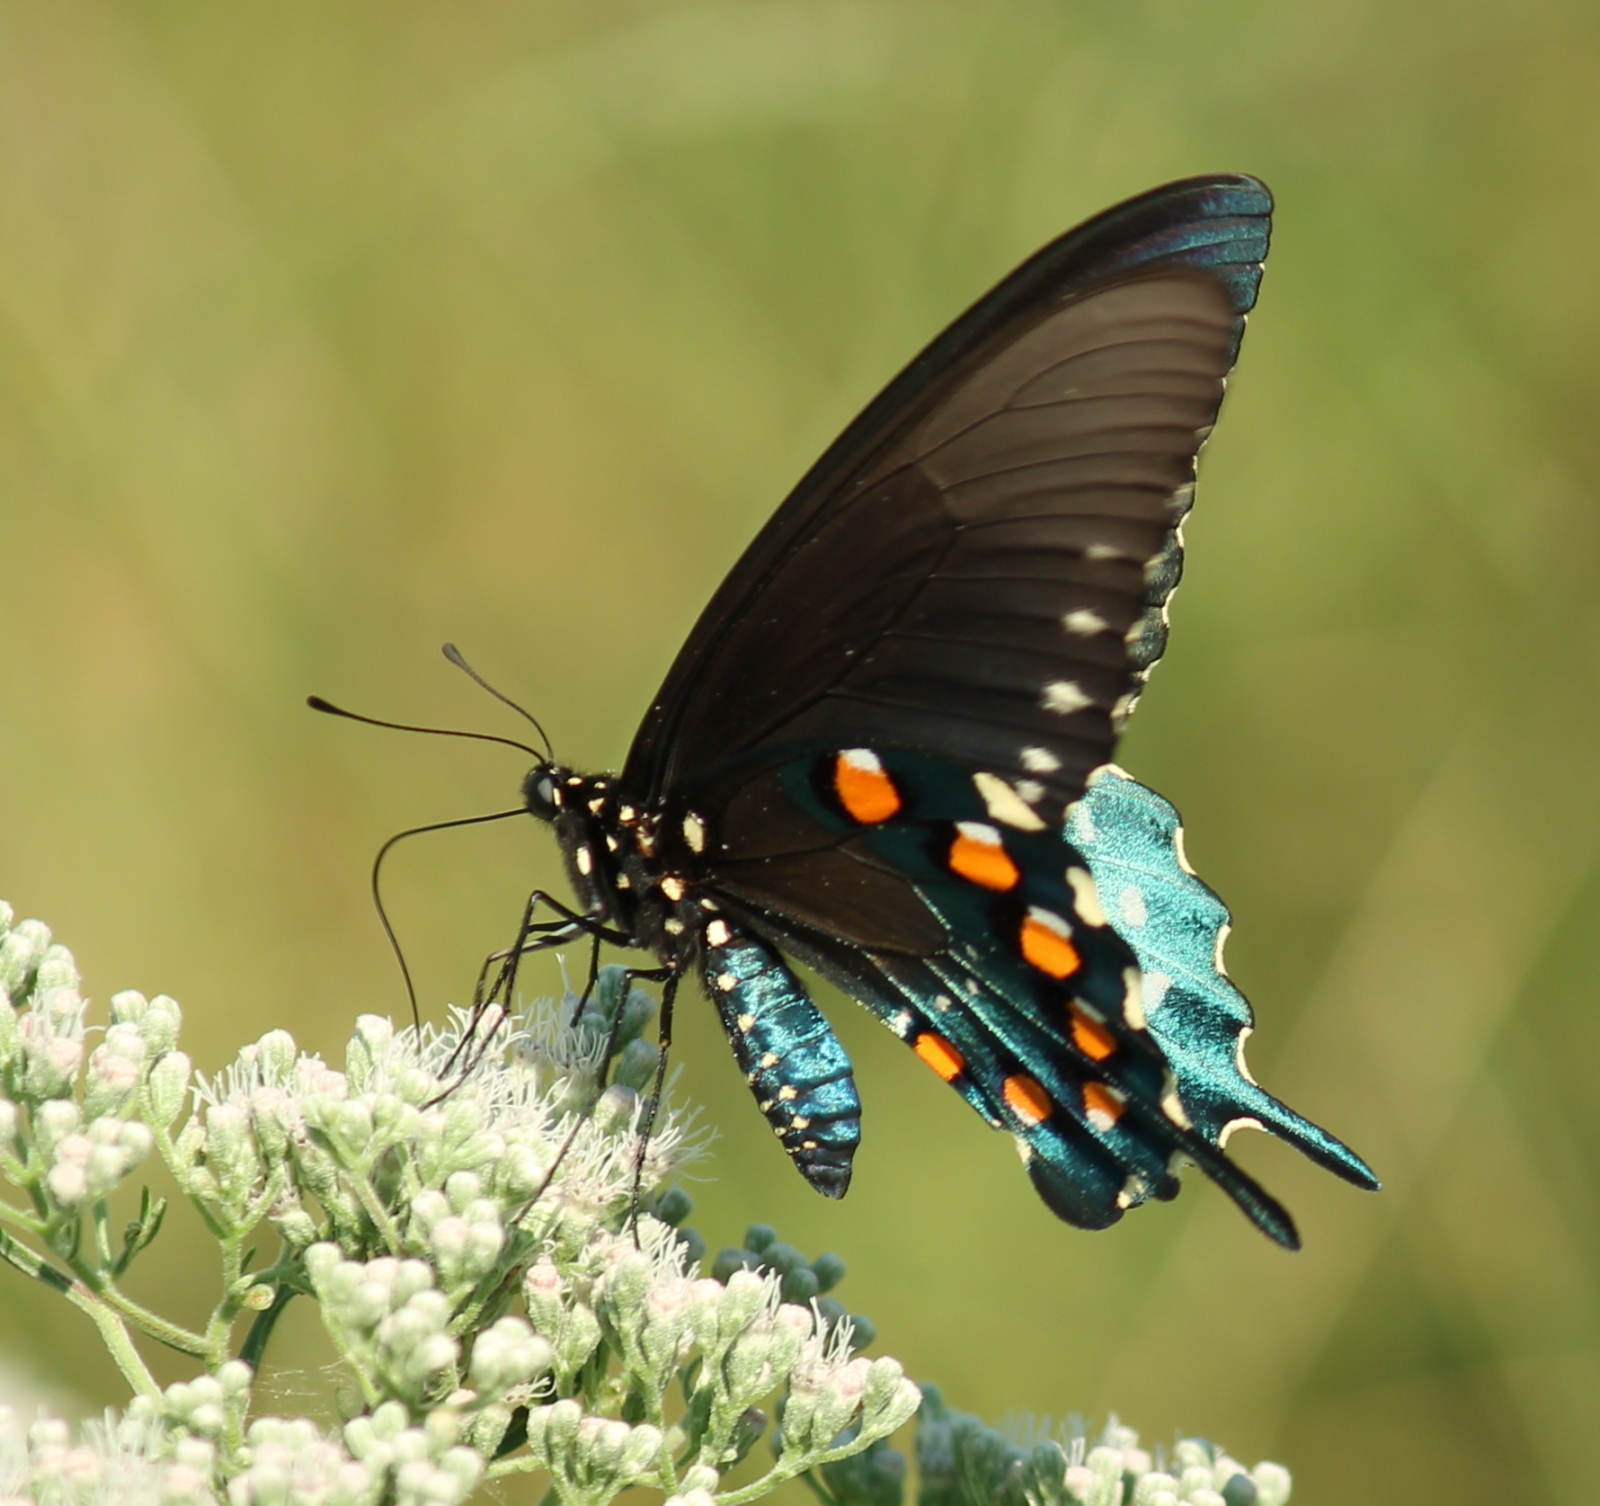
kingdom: Animalia
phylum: Arthropoda
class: Insecta
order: Lepidoptera
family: Papilionidae
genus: Battus
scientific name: Battus philenor
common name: Pipevine swallowtail
